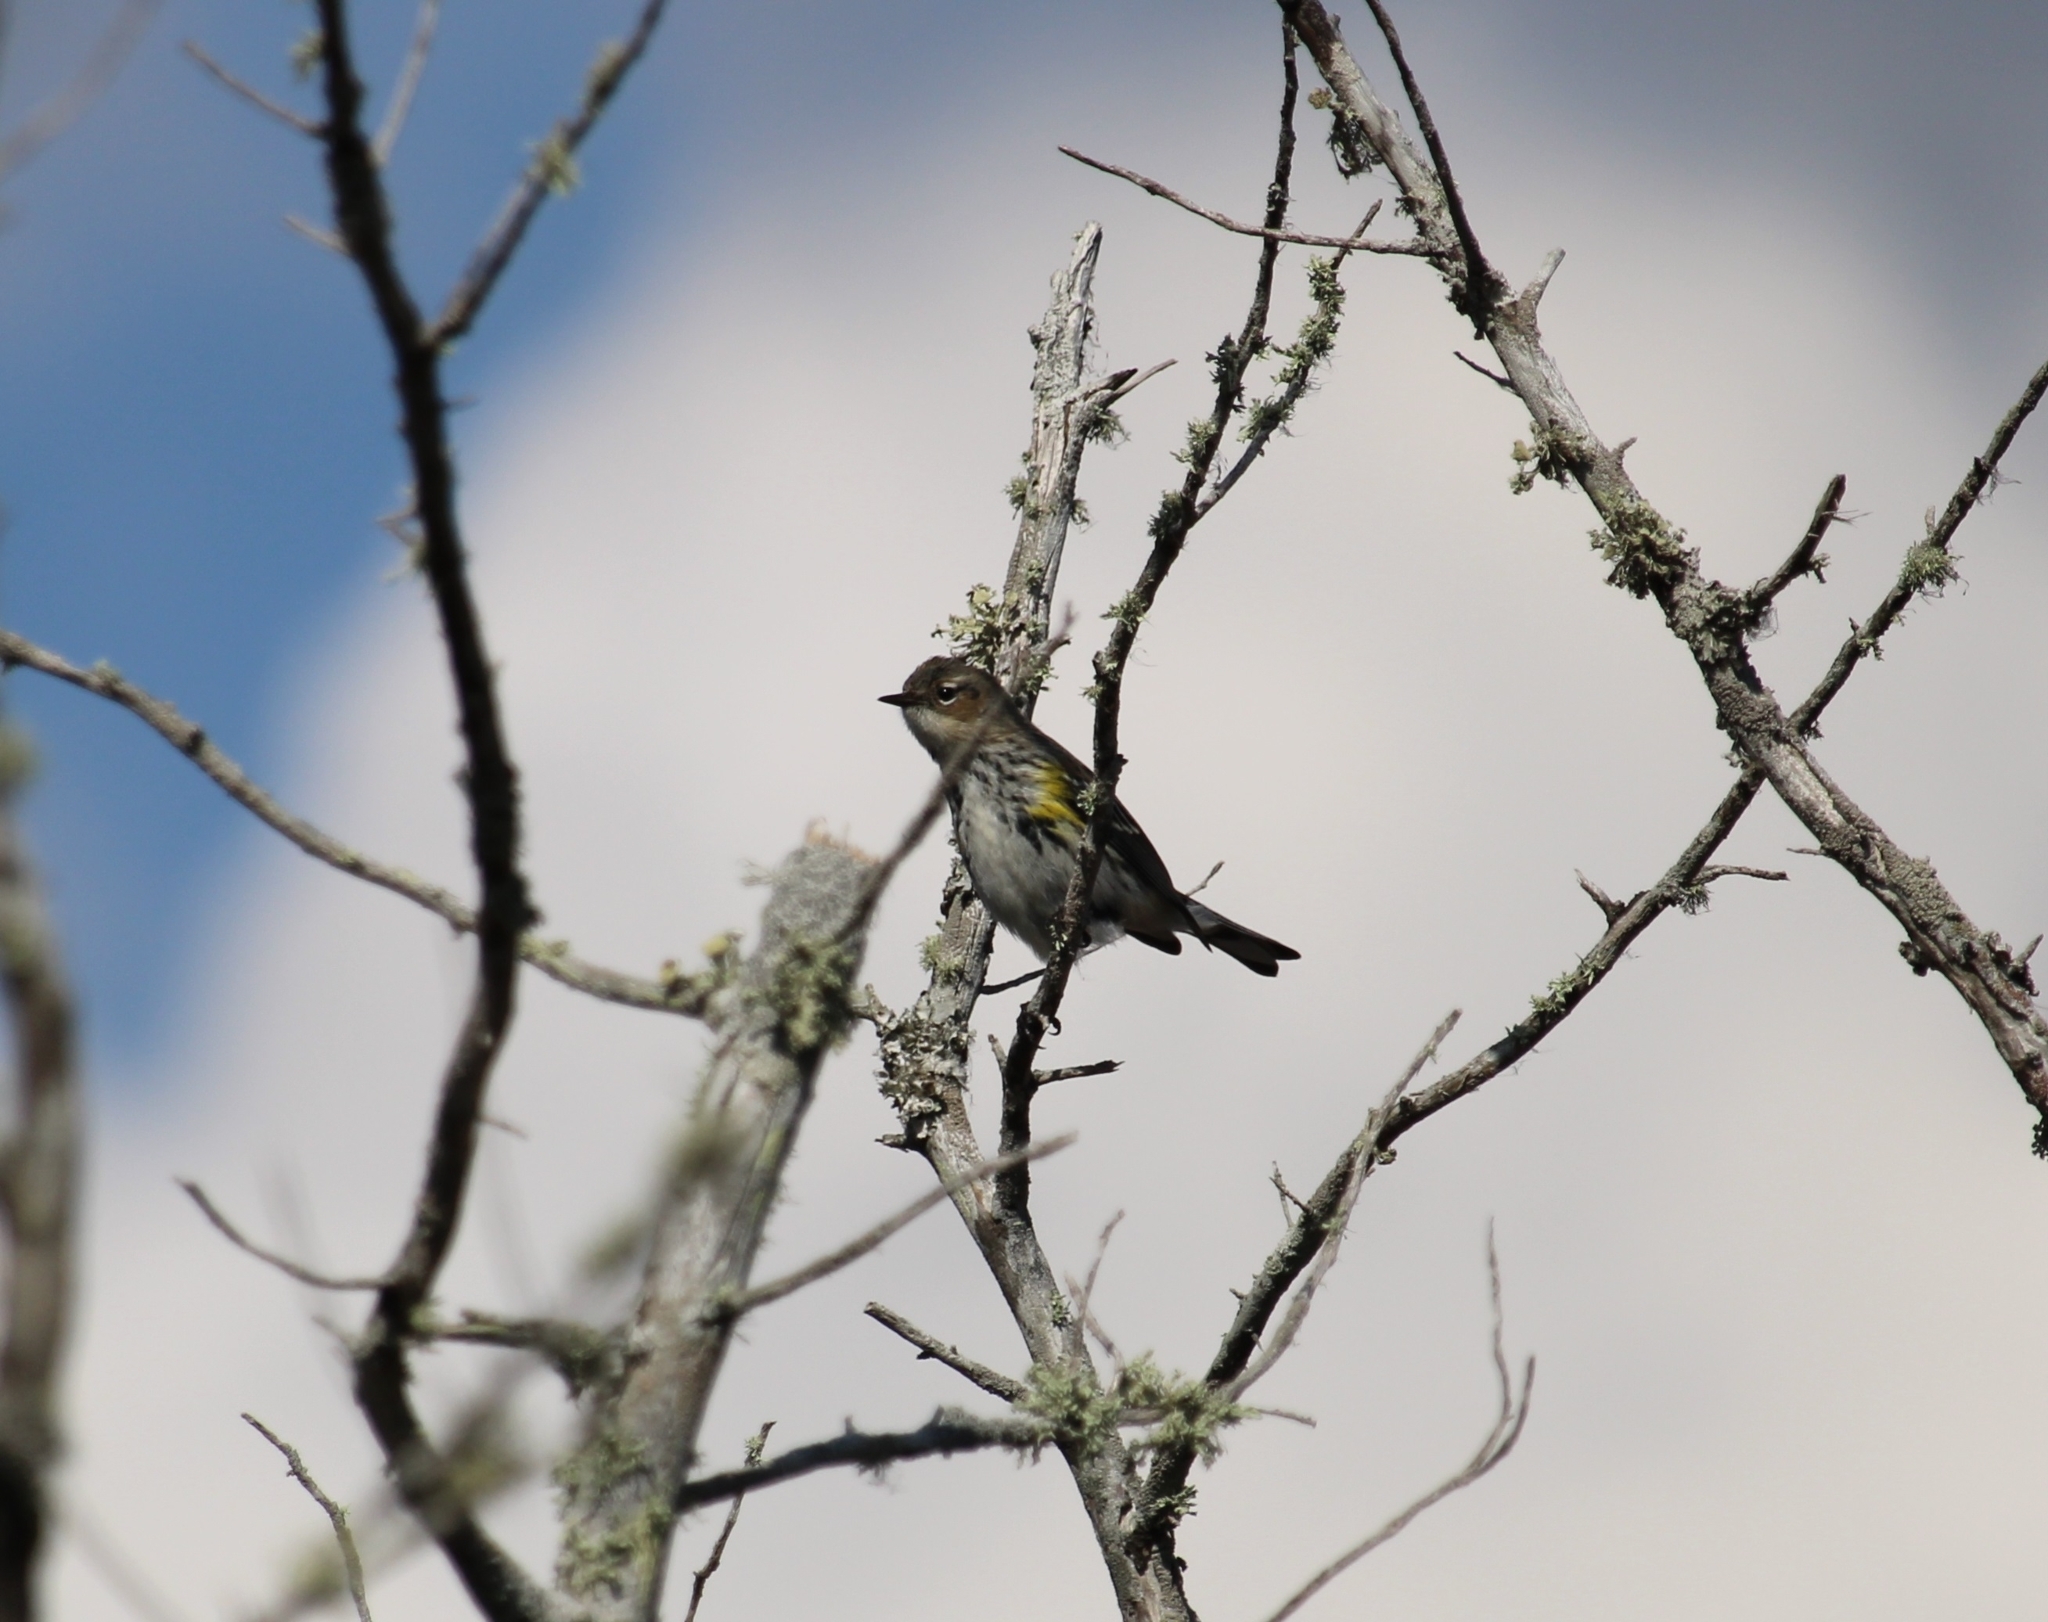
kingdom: Animalia
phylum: Chordata
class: Aves
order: Passeriformes
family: Parulidae
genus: Setophaga
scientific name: Setophaga coronata
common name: Myrtle warbler
